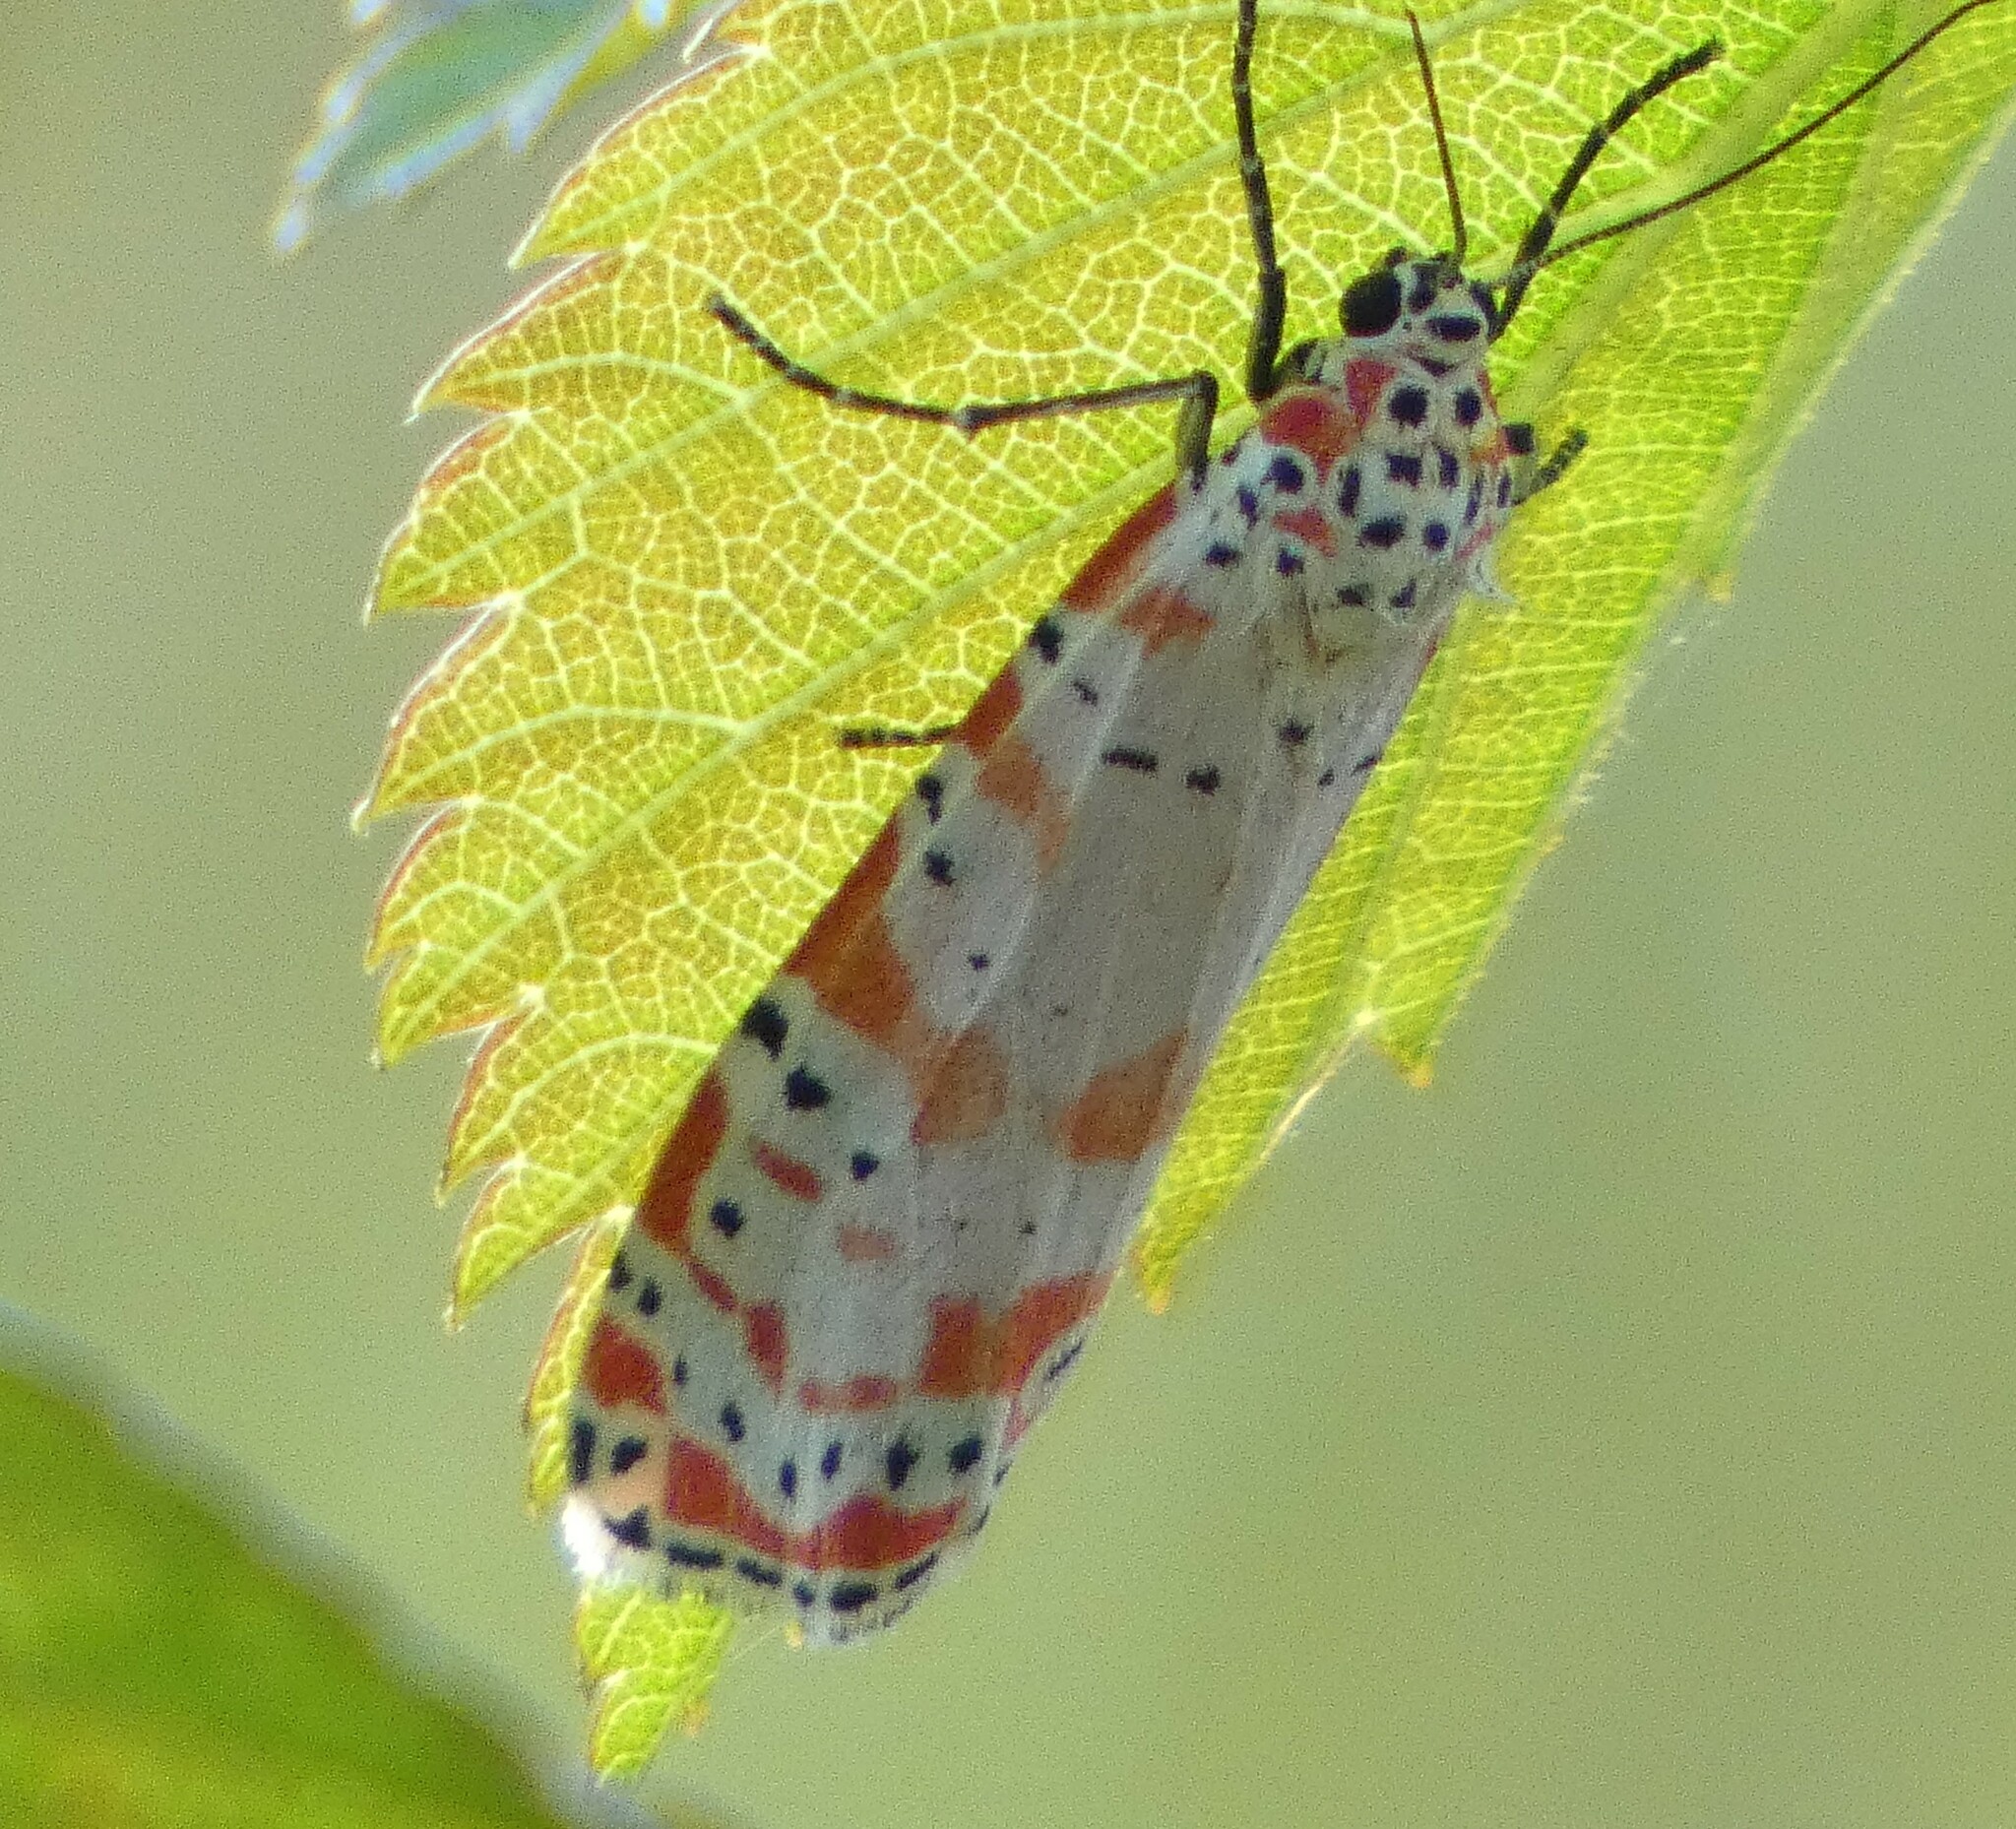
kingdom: Animalia
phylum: Arthropoda
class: Insecta
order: Lepidoptera
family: Erebidae
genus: Utetheisa
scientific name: Utetheisa ornatrix
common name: Beautiful utetheisa
